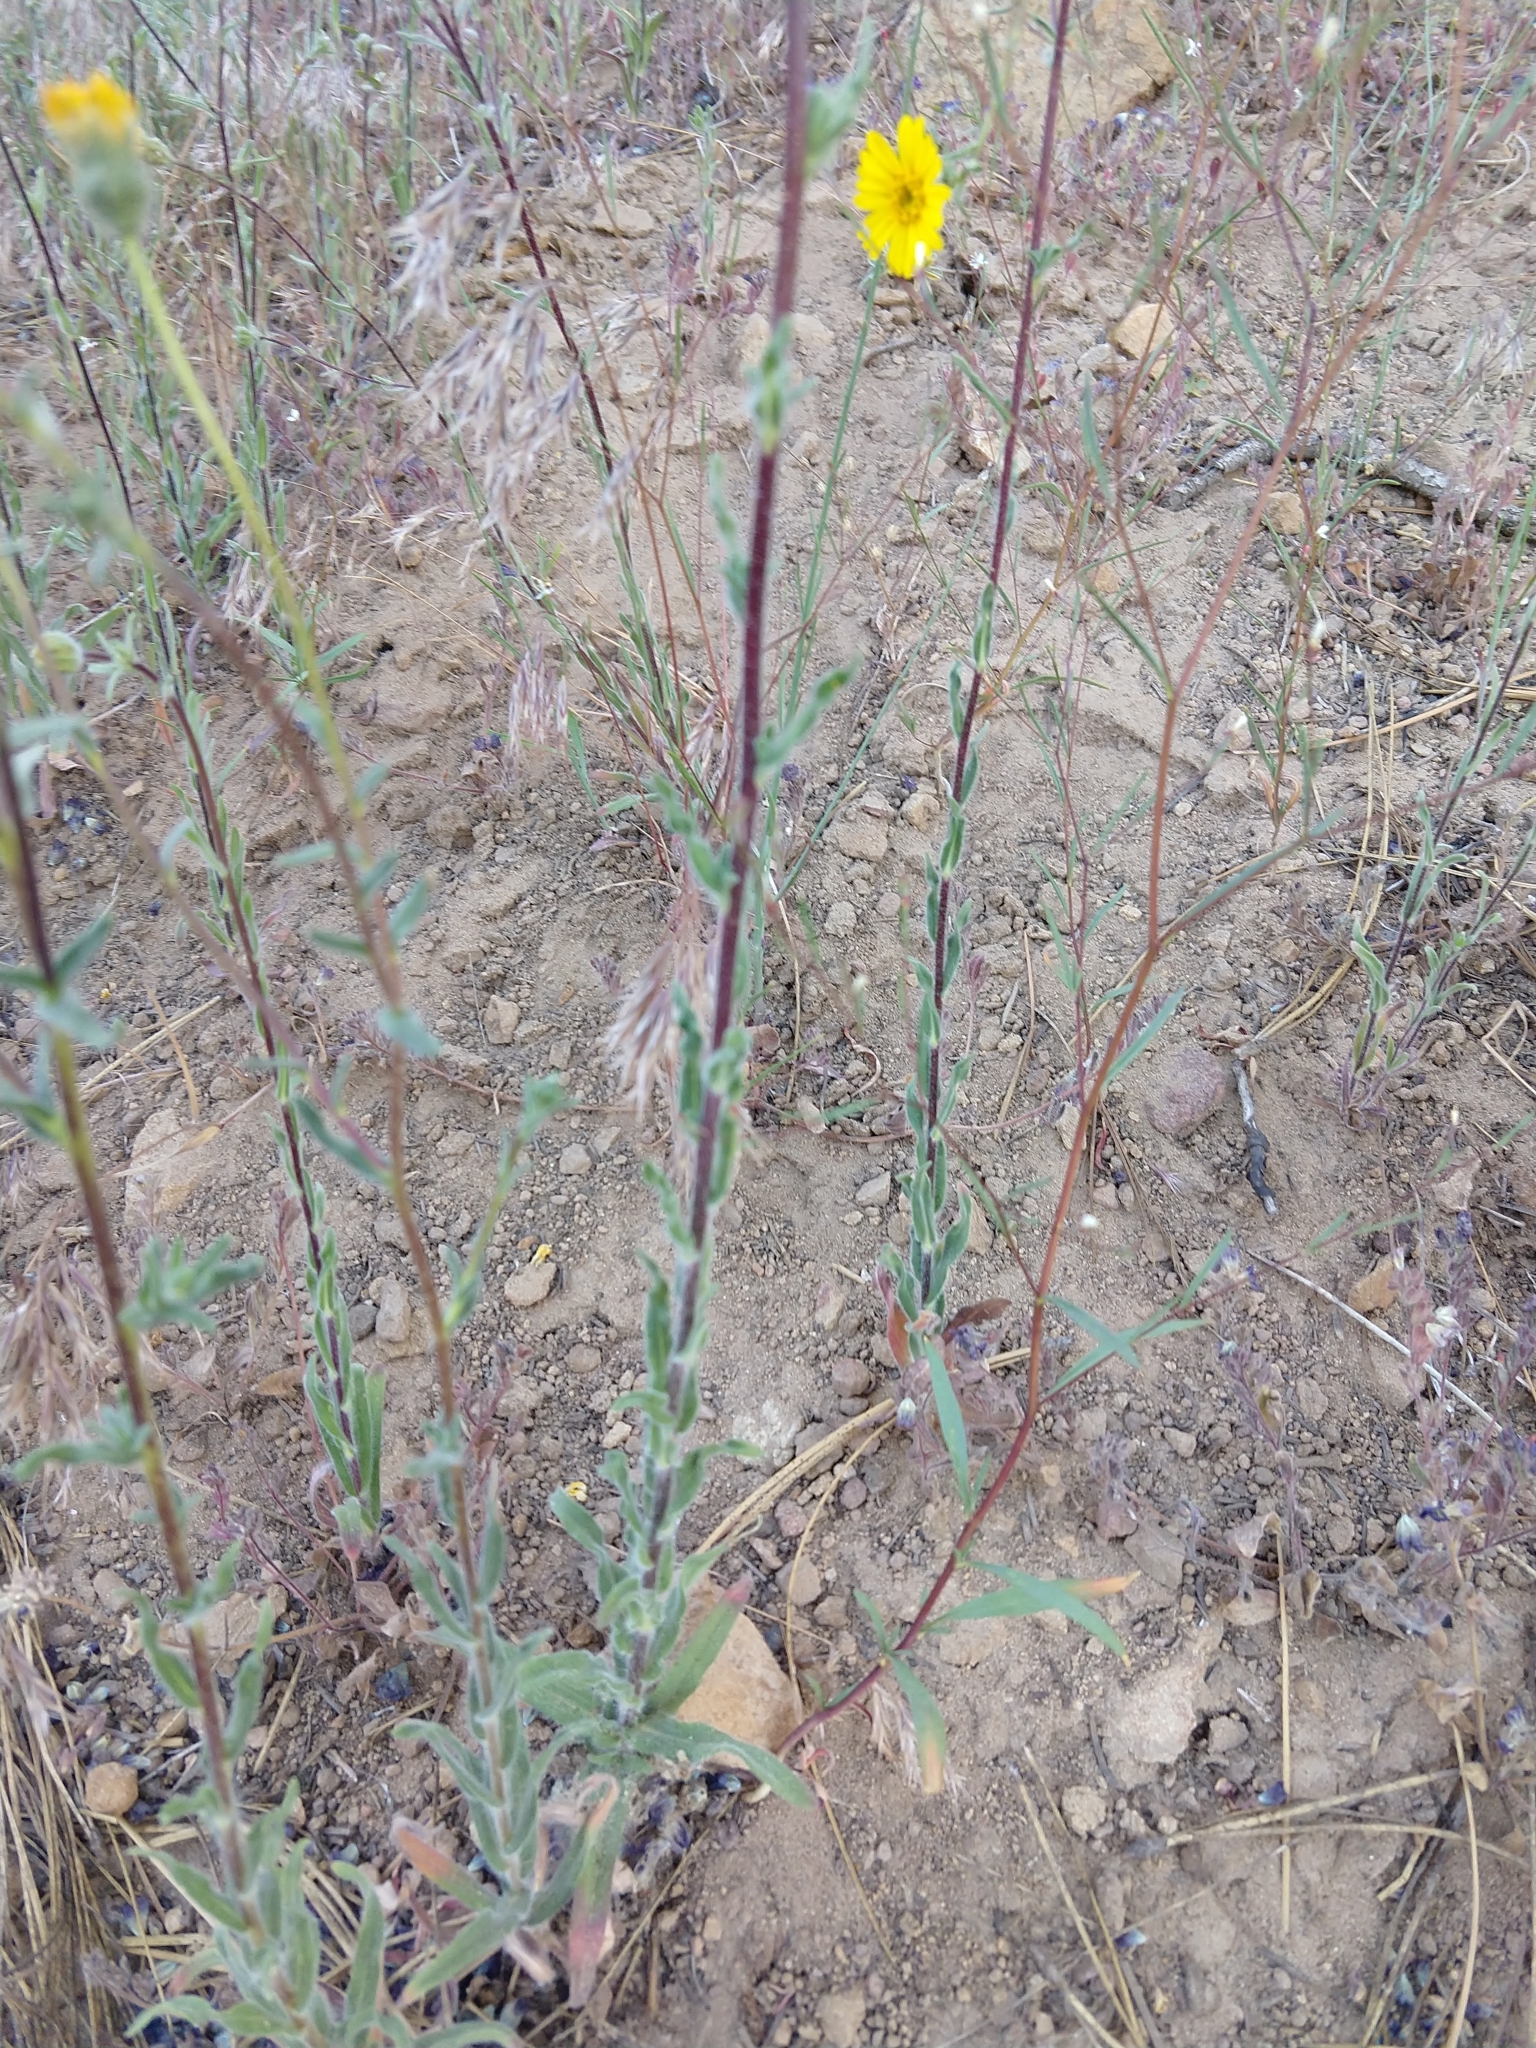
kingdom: Plantae
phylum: Tracheophyta
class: Magnoliopsida
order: Asterales
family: Asteraceae
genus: Madia
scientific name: Madia elegans
